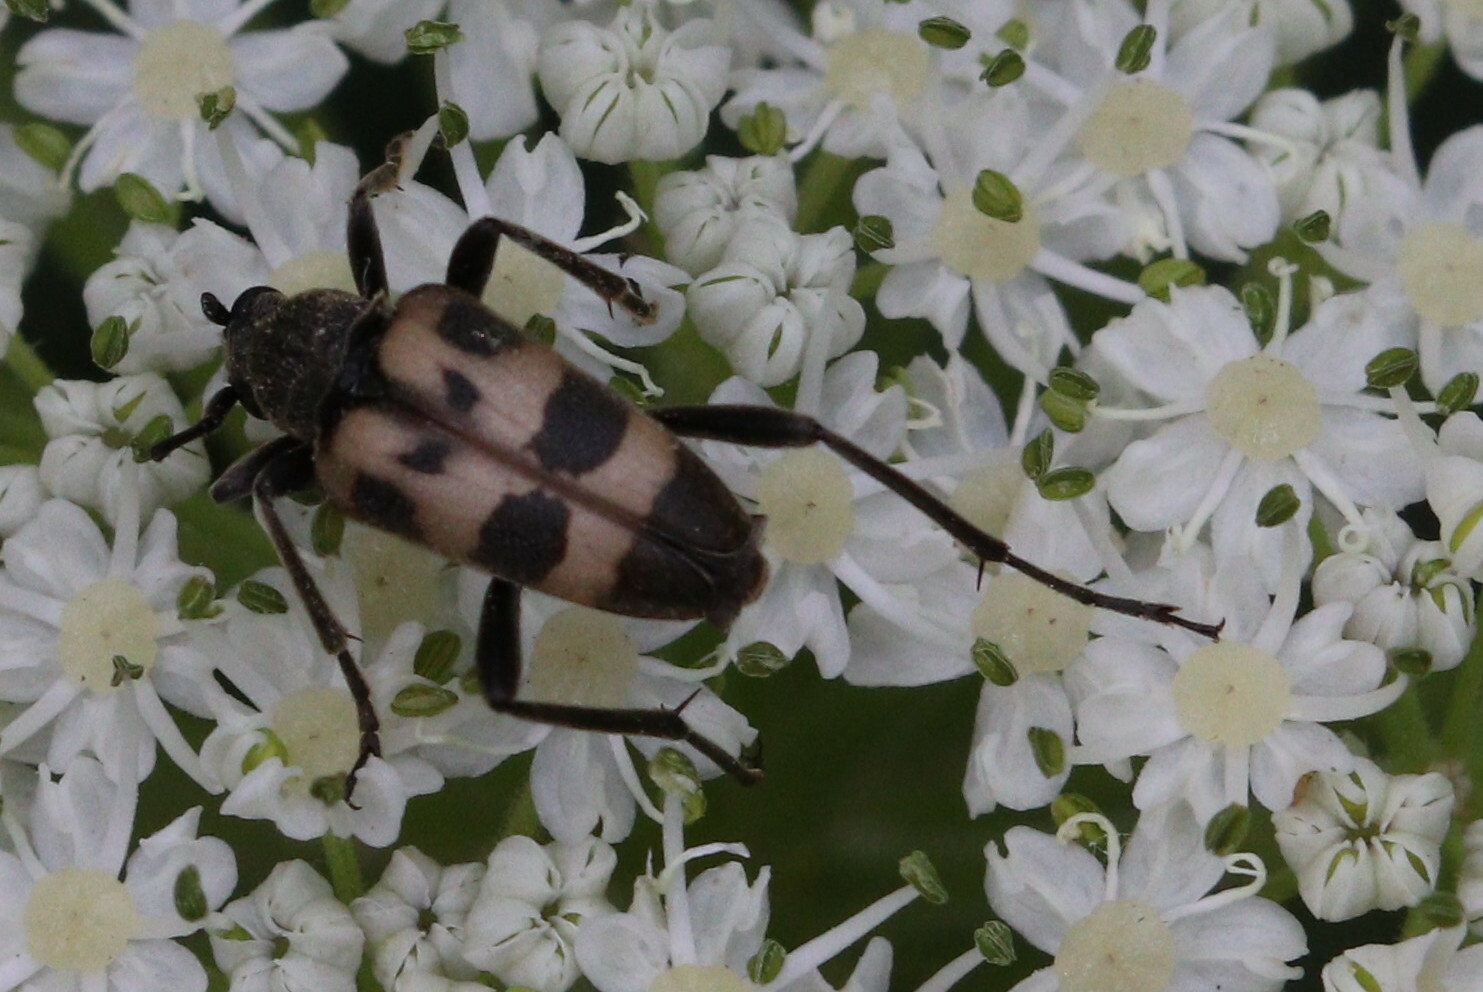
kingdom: Animalia
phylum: Arthropoda
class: Insecta
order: Coleoptera
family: Cerambycidae
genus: Pachytodes
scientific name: Pachytodes cerambyciformis
